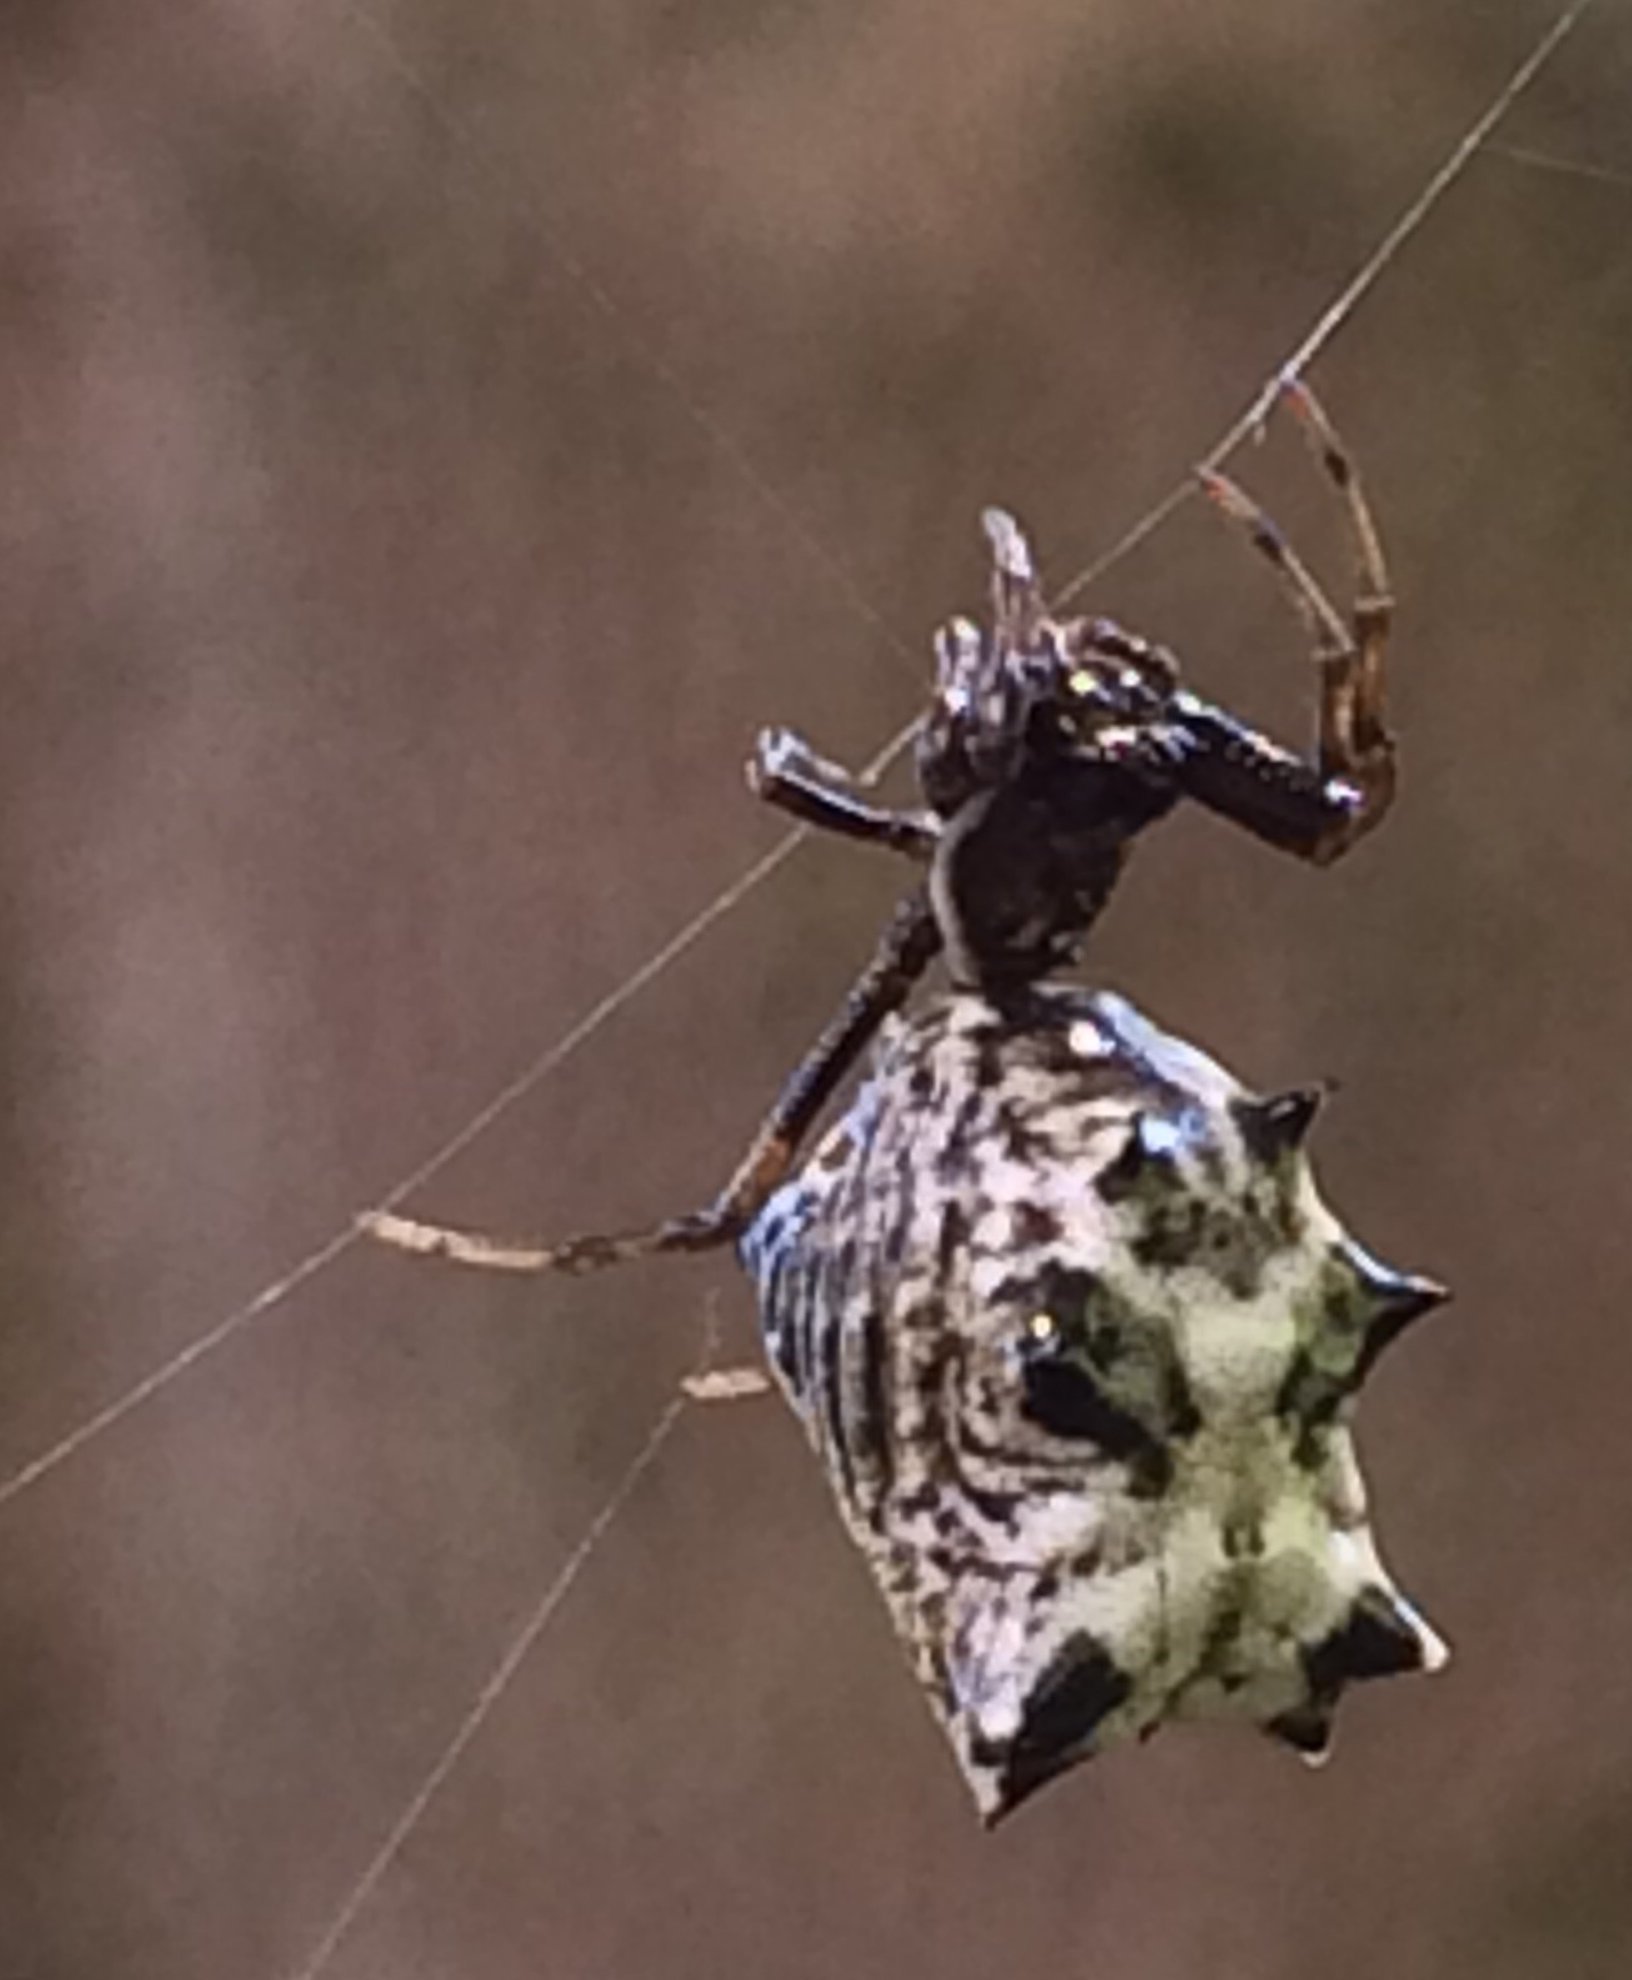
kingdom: Animalia
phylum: Arthropoda
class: Arachnida
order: Araneae
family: Araneidae
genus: Micrathena
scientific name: Micrathena gracilis
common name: Orb weavers
